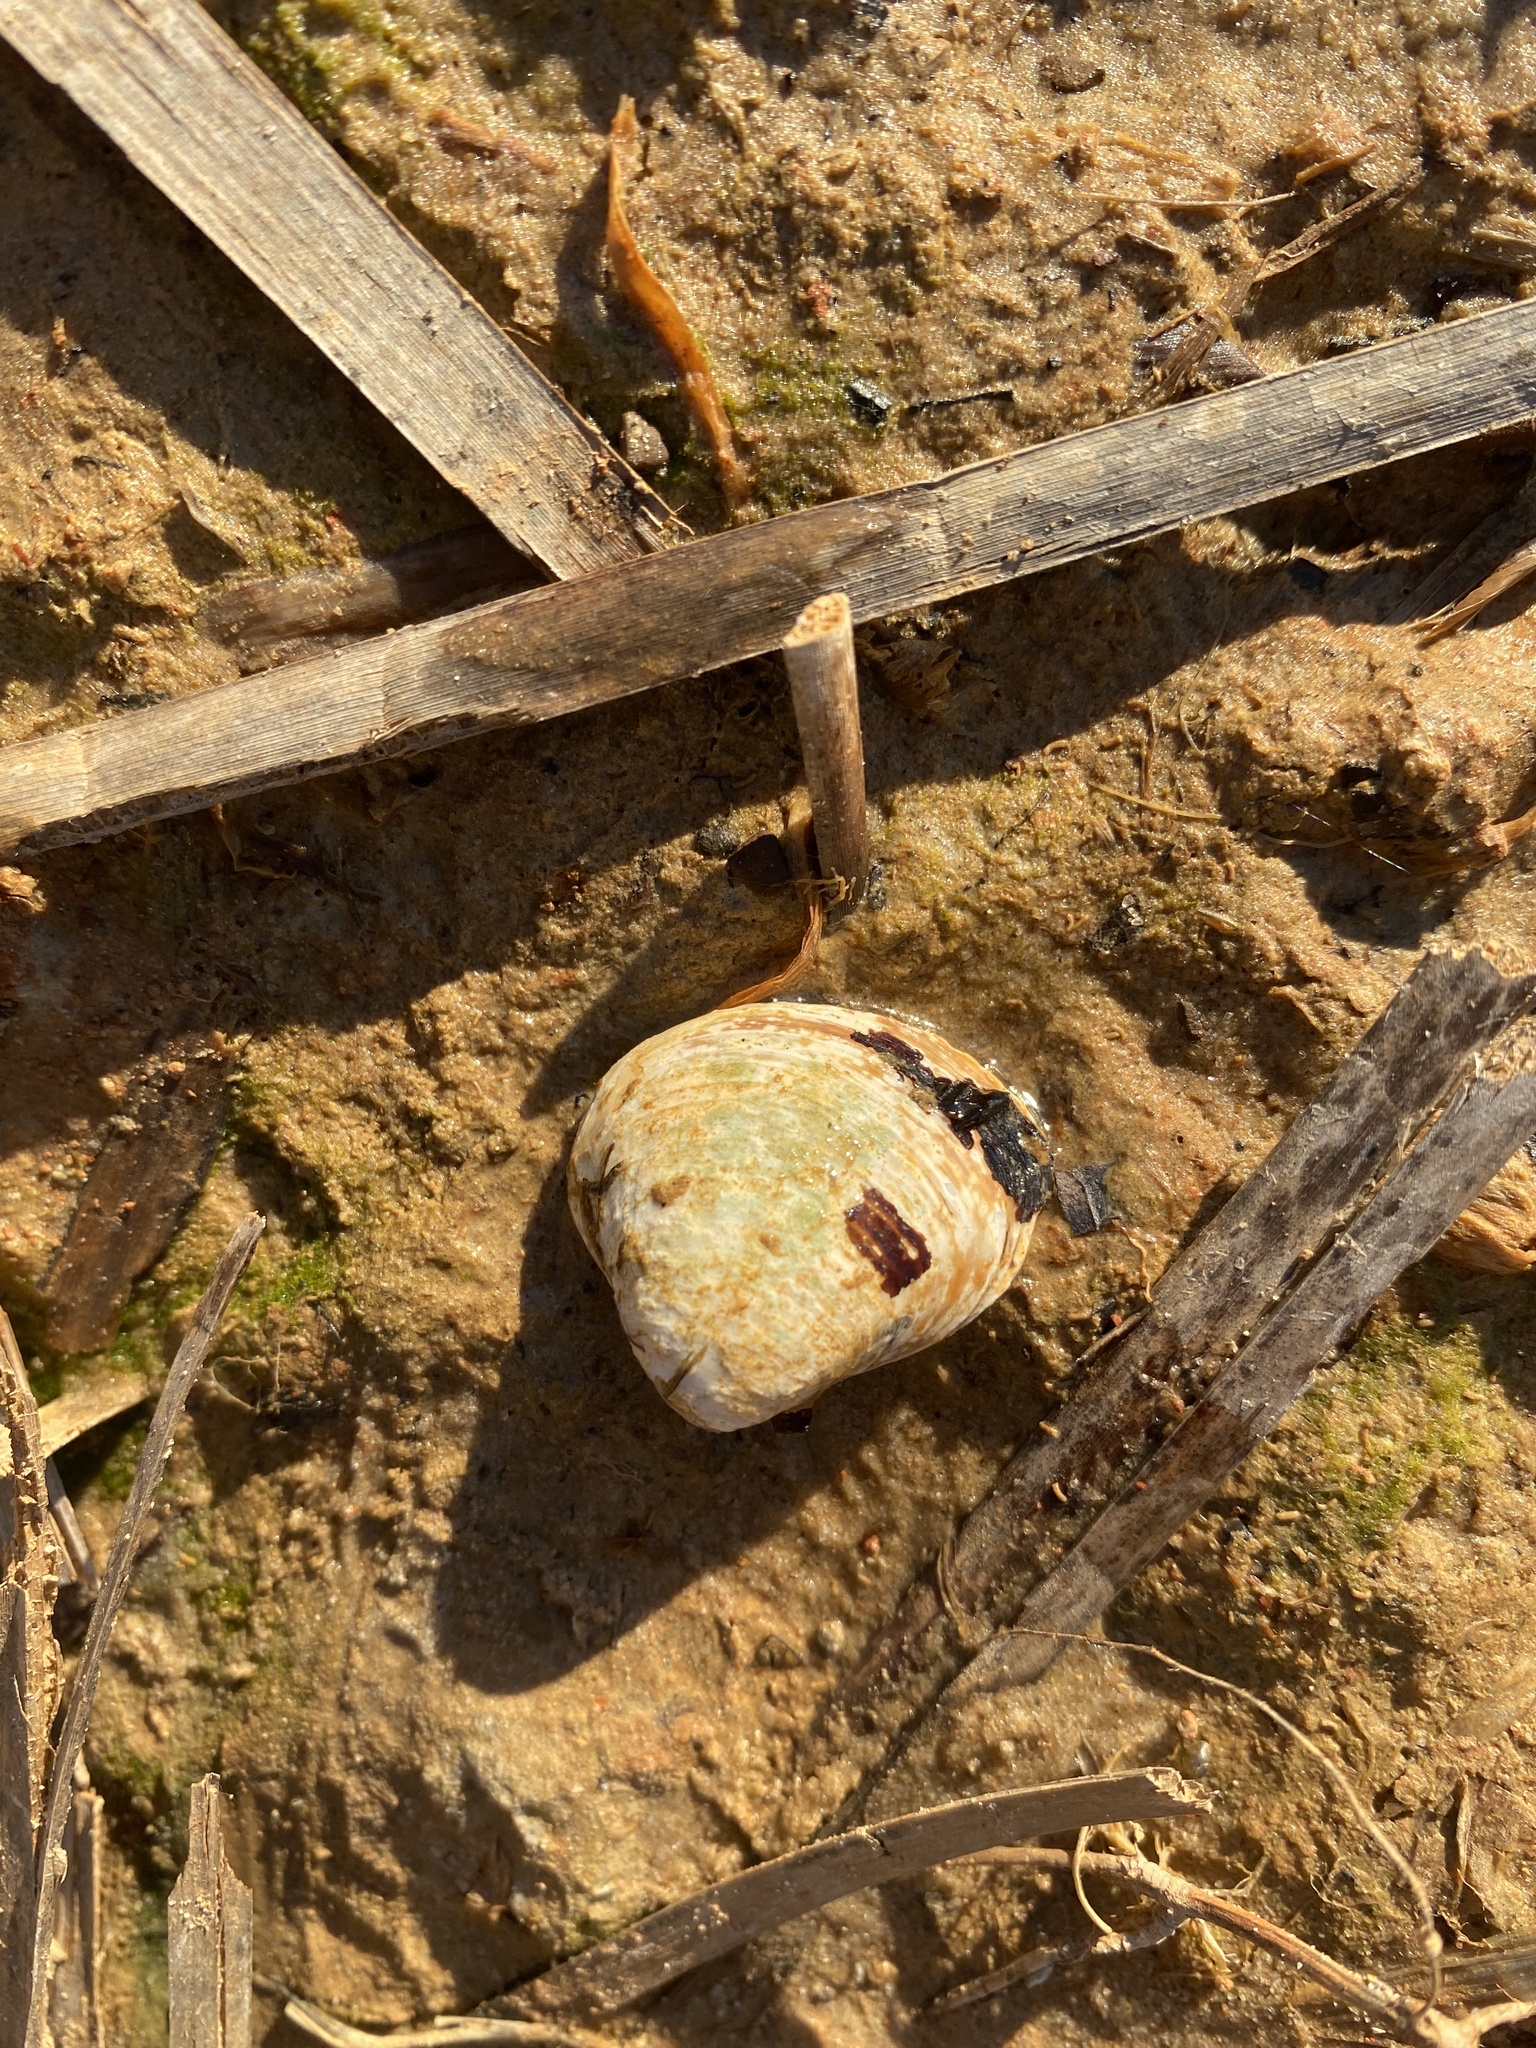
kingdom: Animalia
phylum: Mollusca
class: Bivalvia
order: Venerida
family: Cyrenidae
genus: Corbicula
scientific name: Corbicula fluminea
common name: Asian clam
